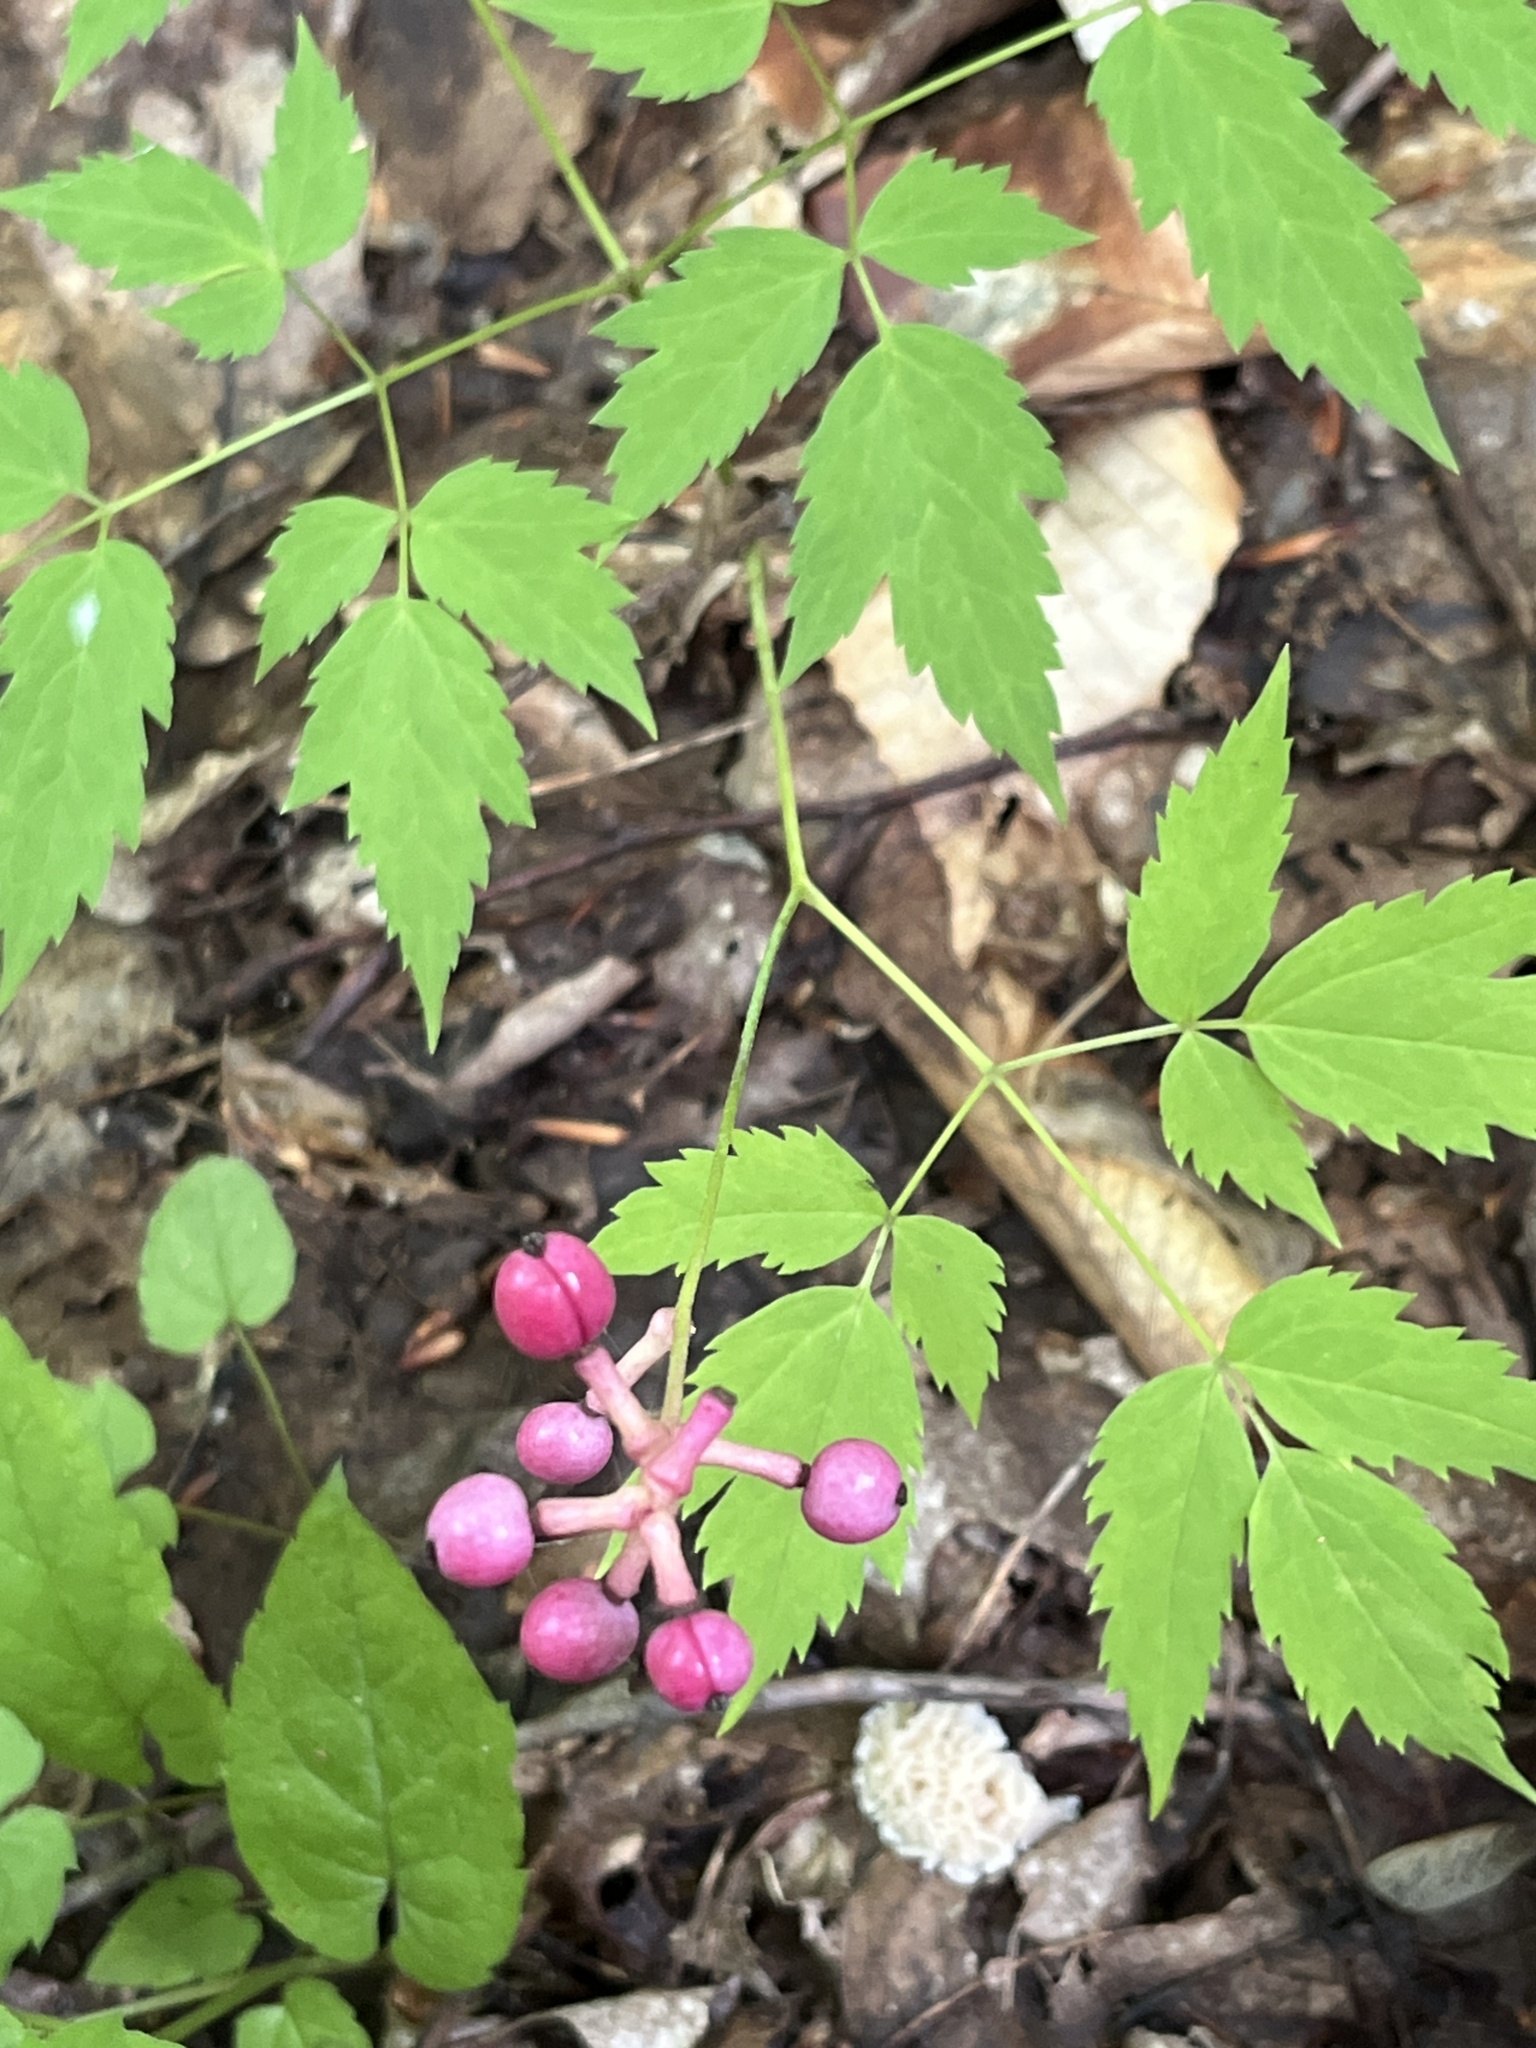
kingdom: Plantae
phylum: Tracheophyta
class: Magnoliopsida
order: Ranunculales
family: Ranunculaceae
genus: Actaea
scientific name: Actaea pachypoda
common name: Doll's-eyes
